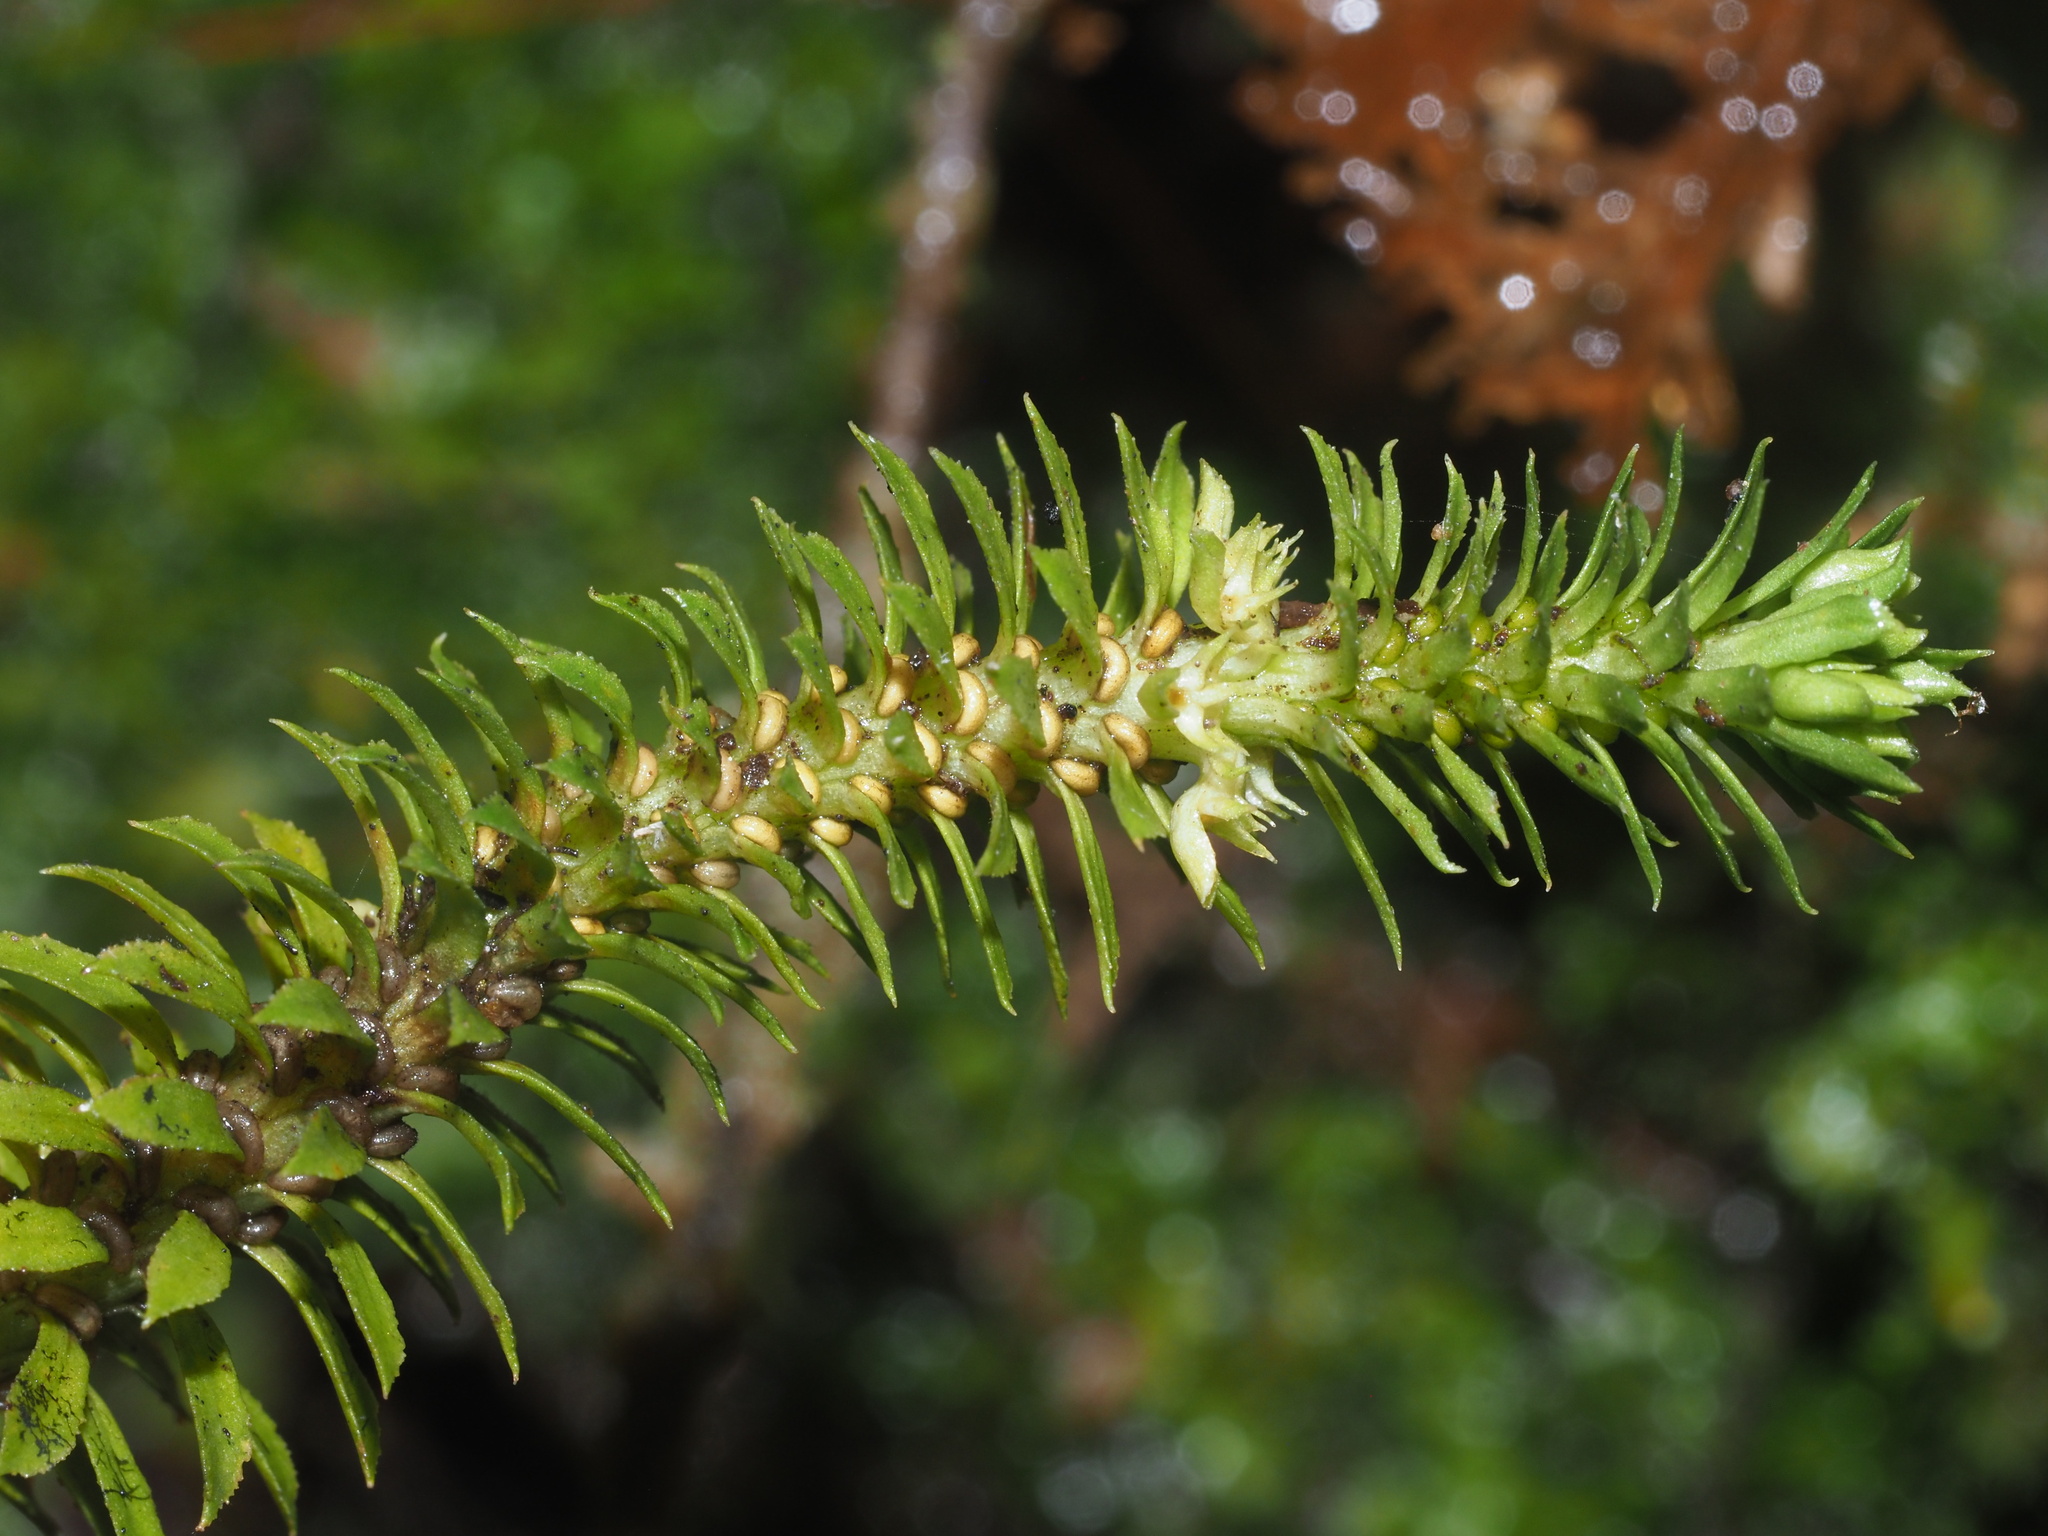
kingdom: Plantae
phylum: Tracheophyta
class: Lycopodiopsida
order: Lycopodiales
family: Lycopodiaceae
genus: Huperzia
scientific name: Huperzia erosa
